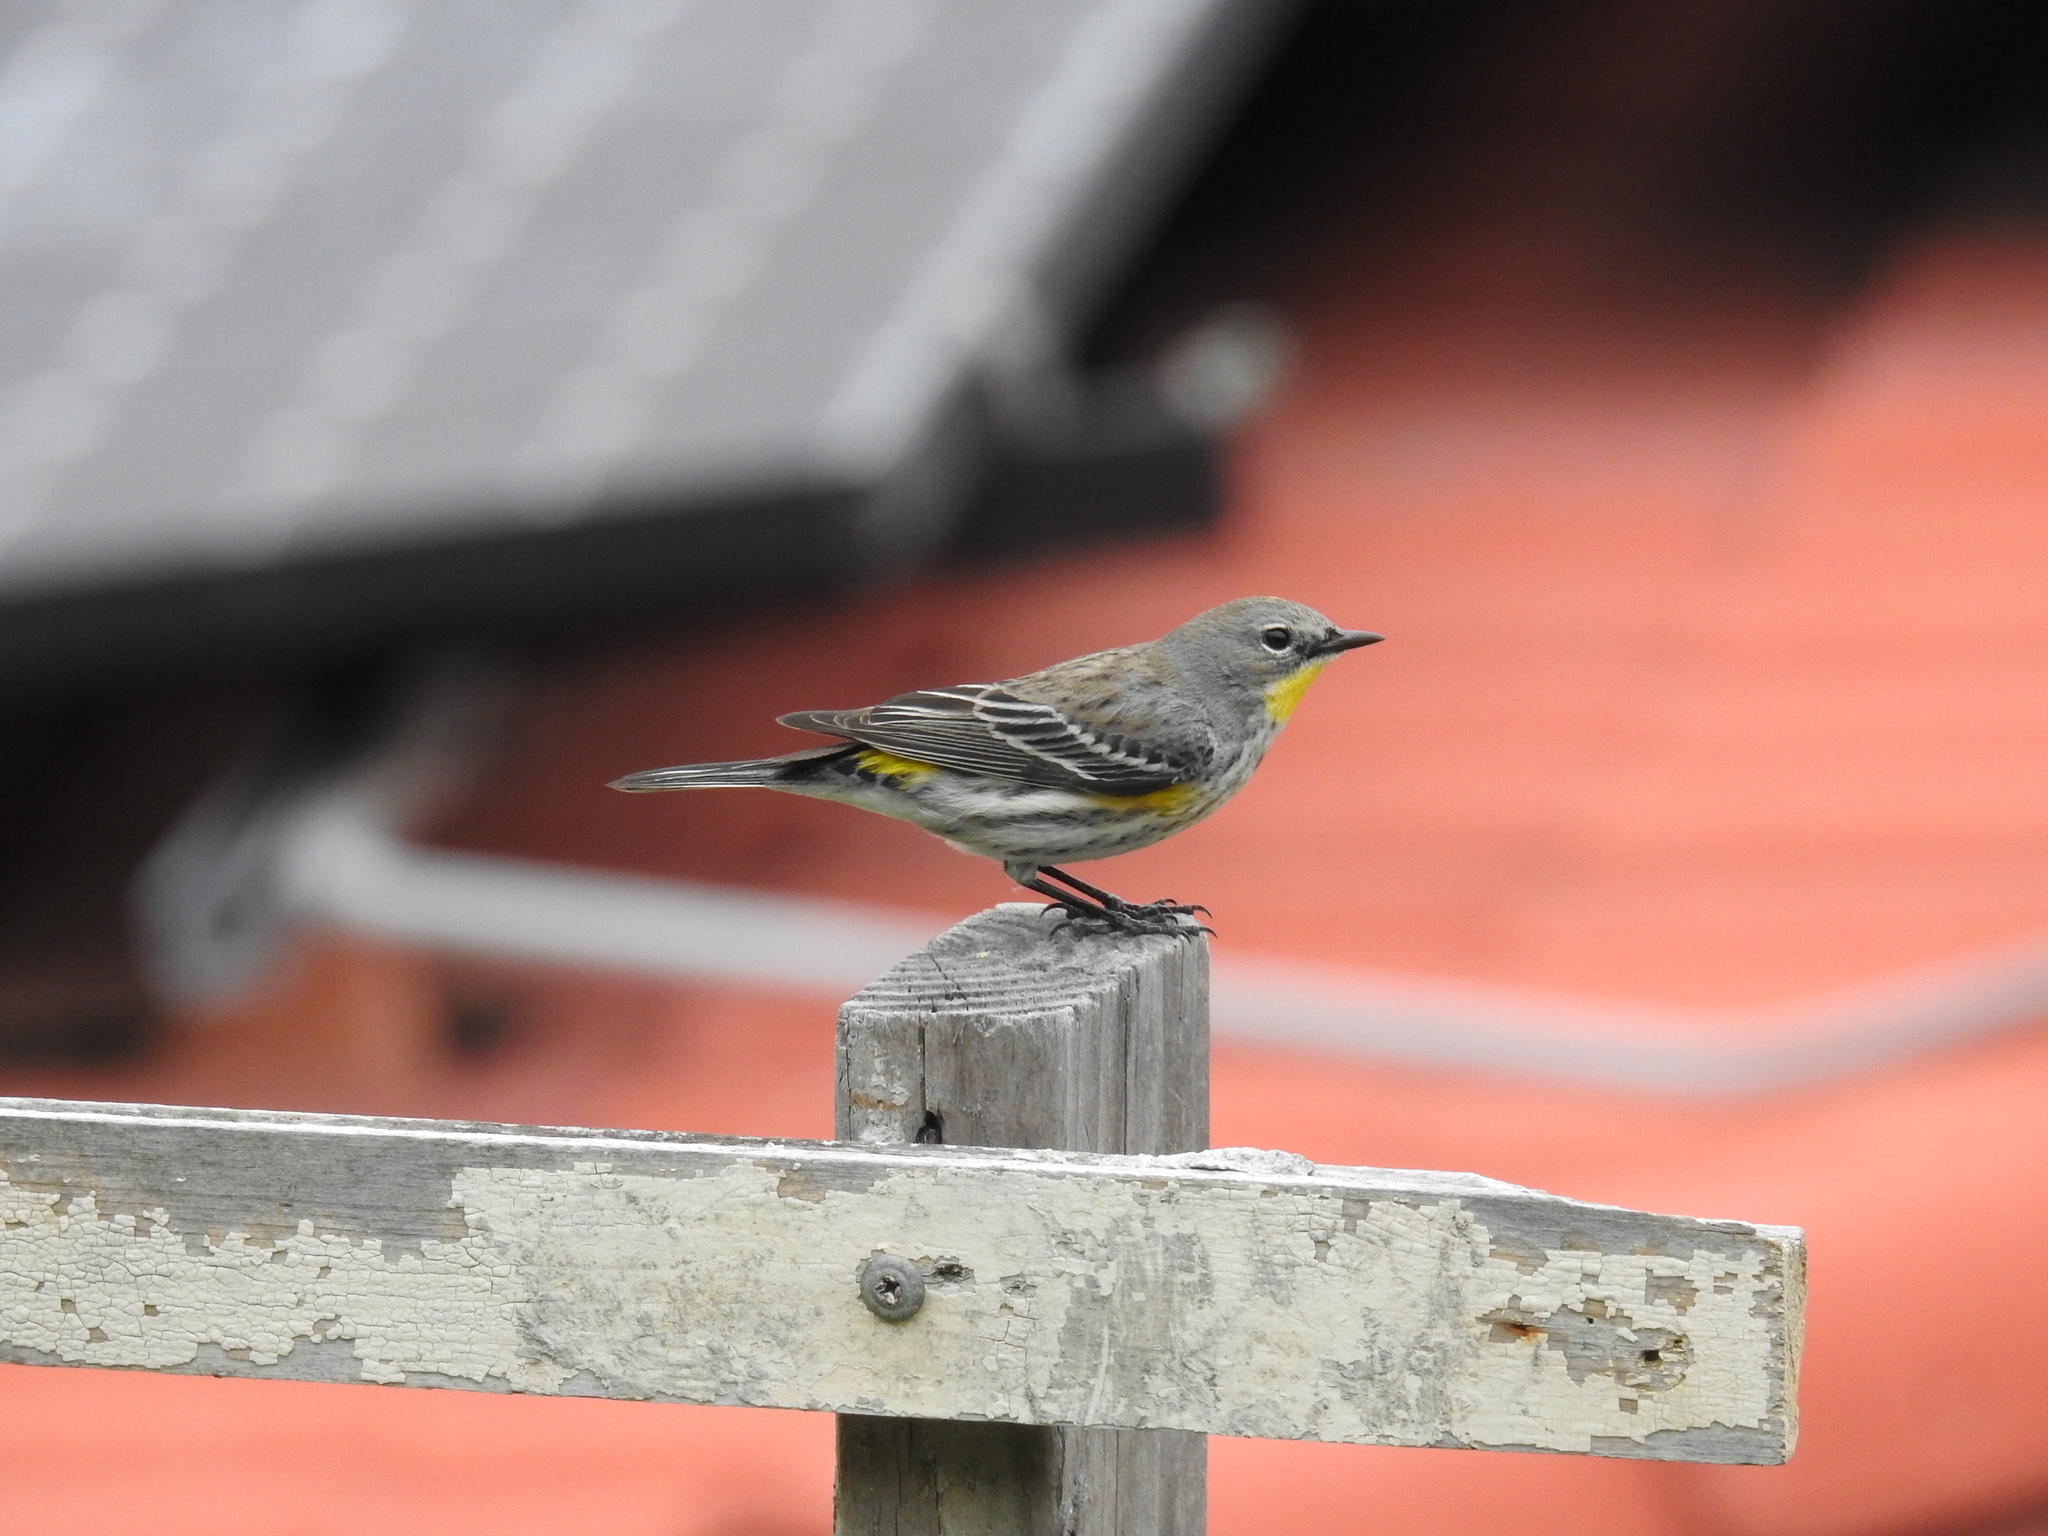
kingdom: Animalia
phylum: Chordata
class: Aves
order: Passeriformes
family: Parulidae
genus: Setophaga
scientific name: Setophaga coronata
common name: Myrtle warbler
